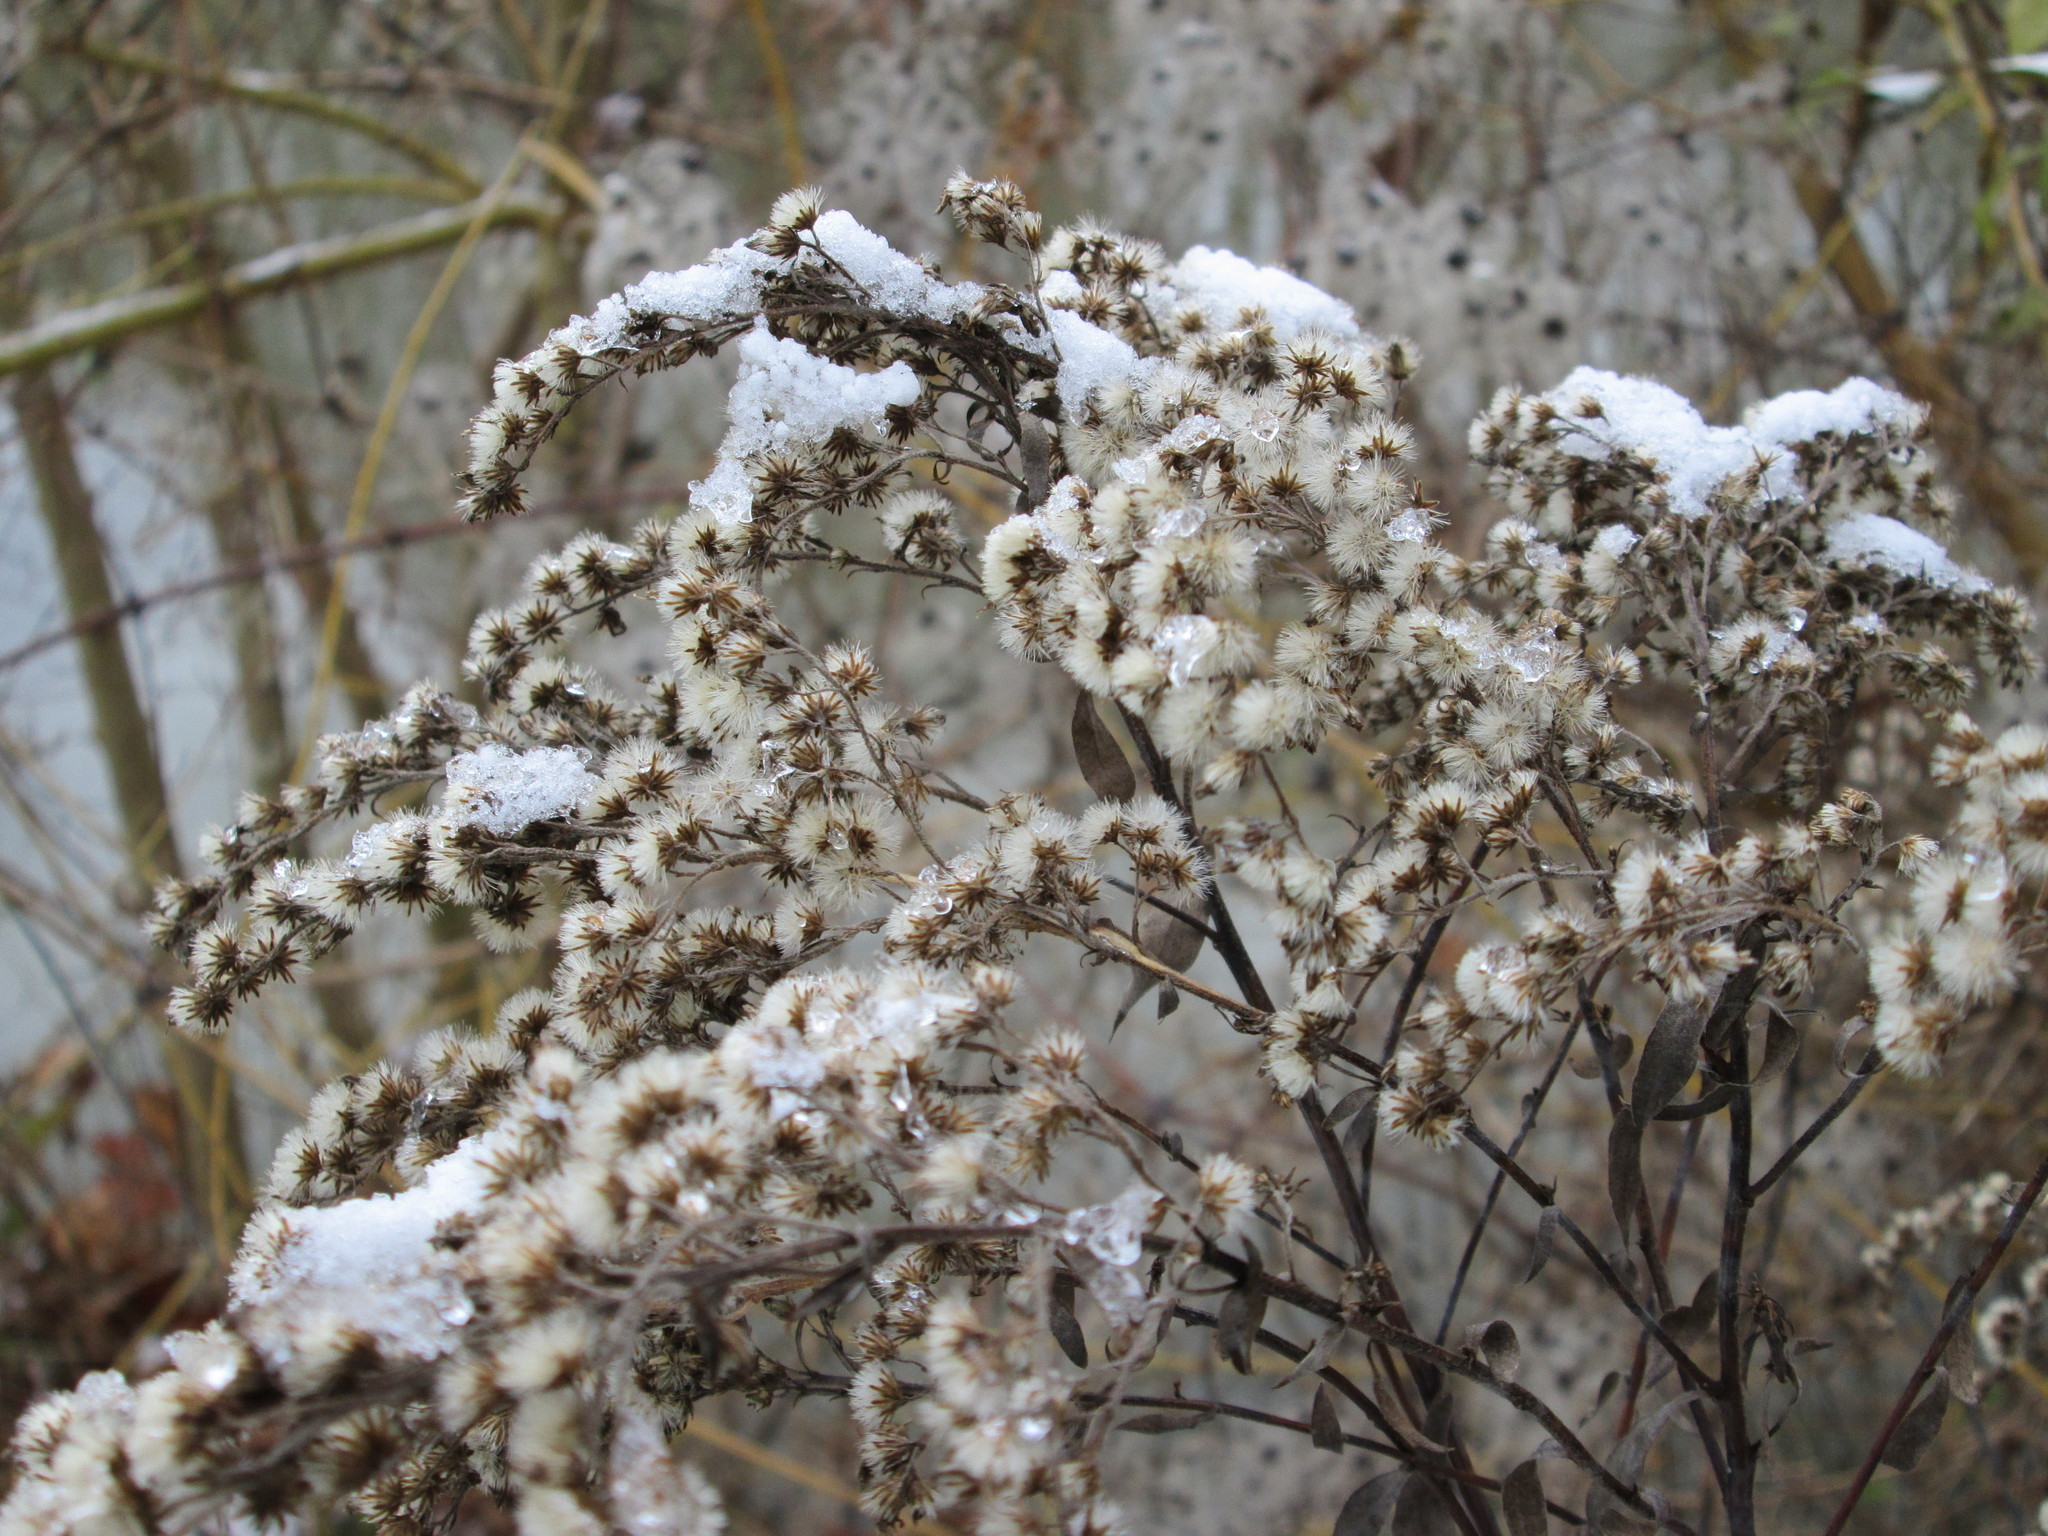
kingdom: Plantae
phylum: Tracheophyta
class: Magnoliopsida
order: Asterales
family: Asteraceae
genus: Solidago
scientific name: Solidago canadensis
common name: Canada goldenrod
